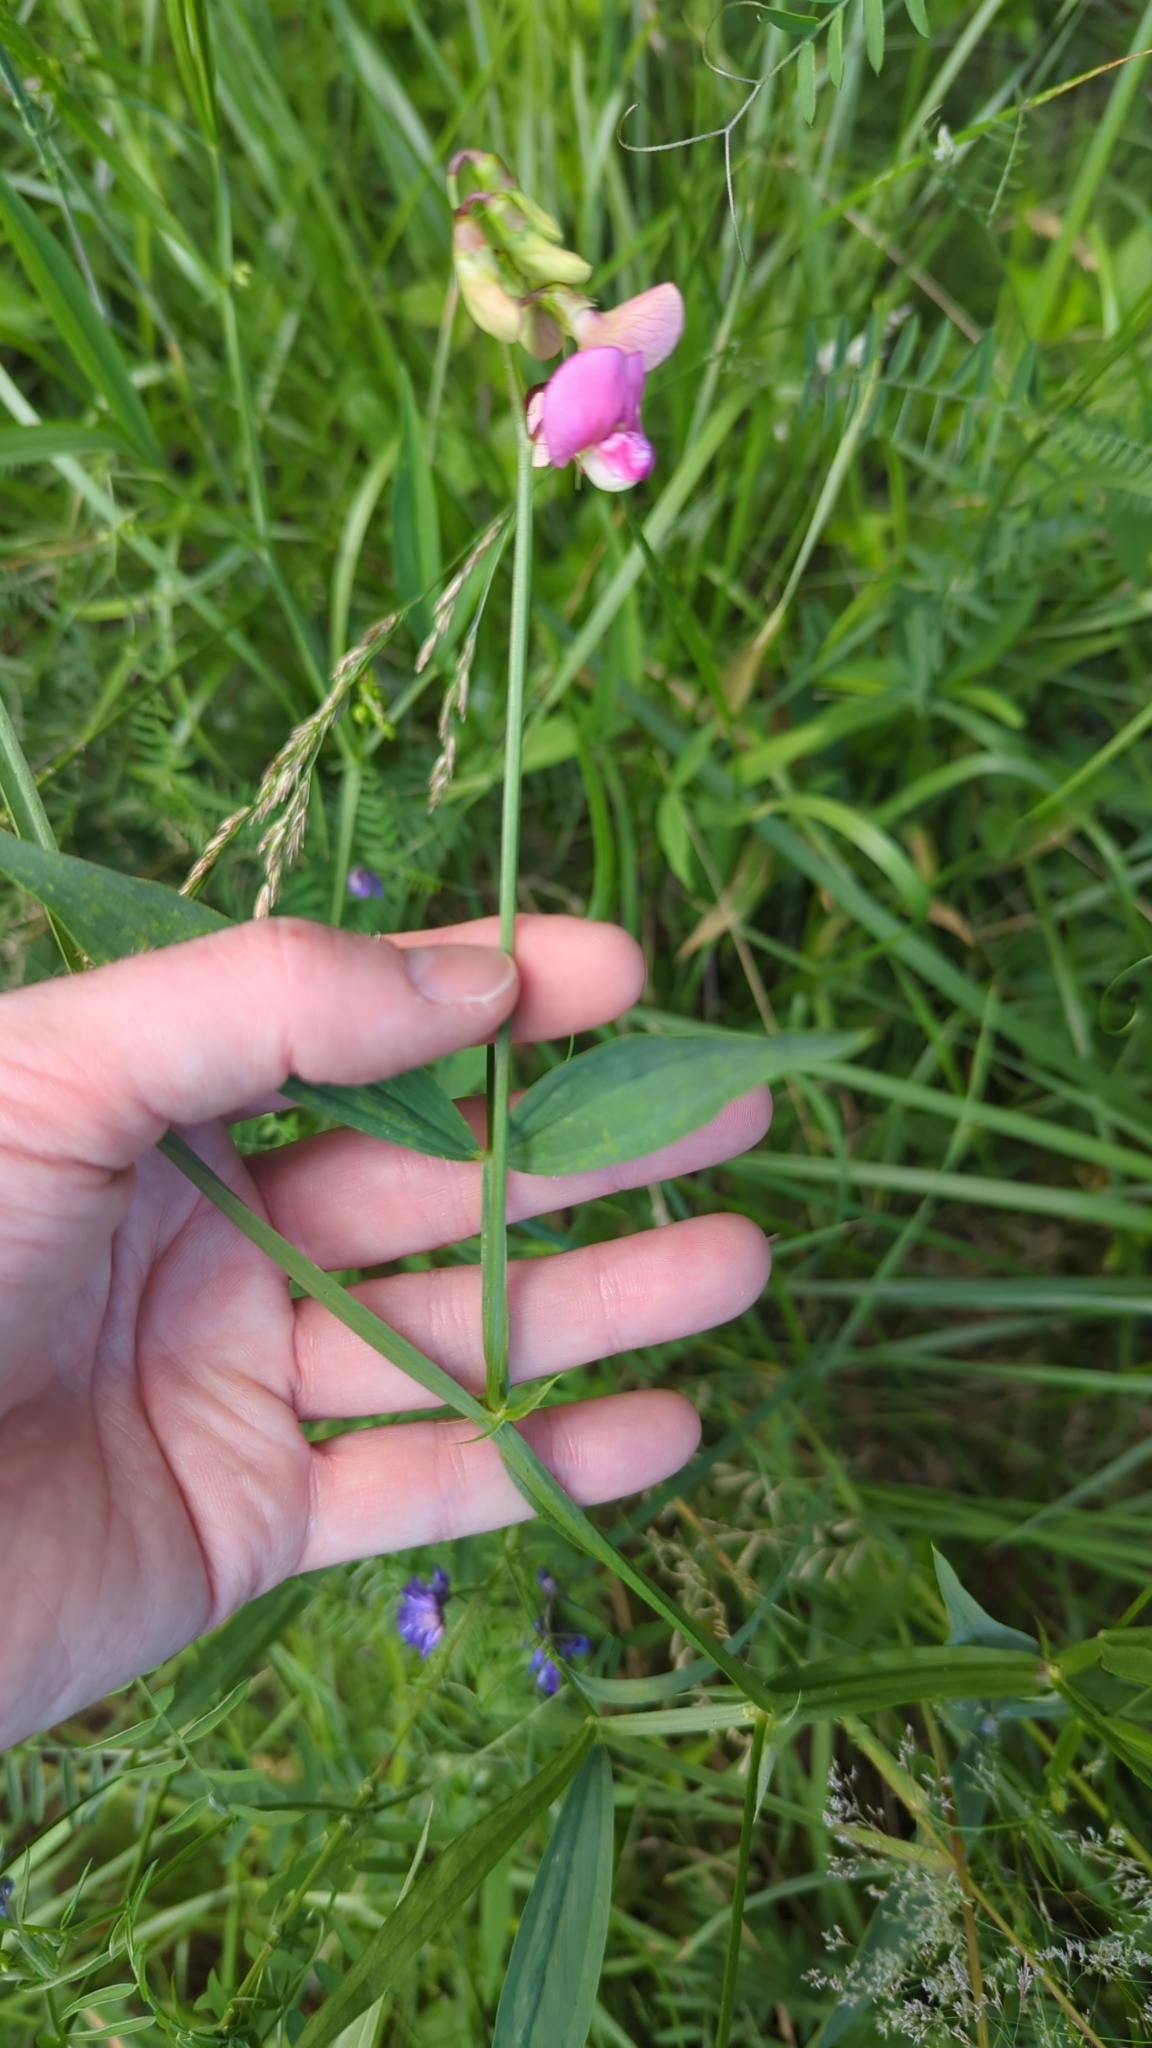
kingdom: Plantae
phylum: Tracheophyta
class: Magnoliopsida
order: Fabales
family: Fabaceae
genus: Lathyrus
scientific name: Lathyrus sylvestris
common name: Flat pea
